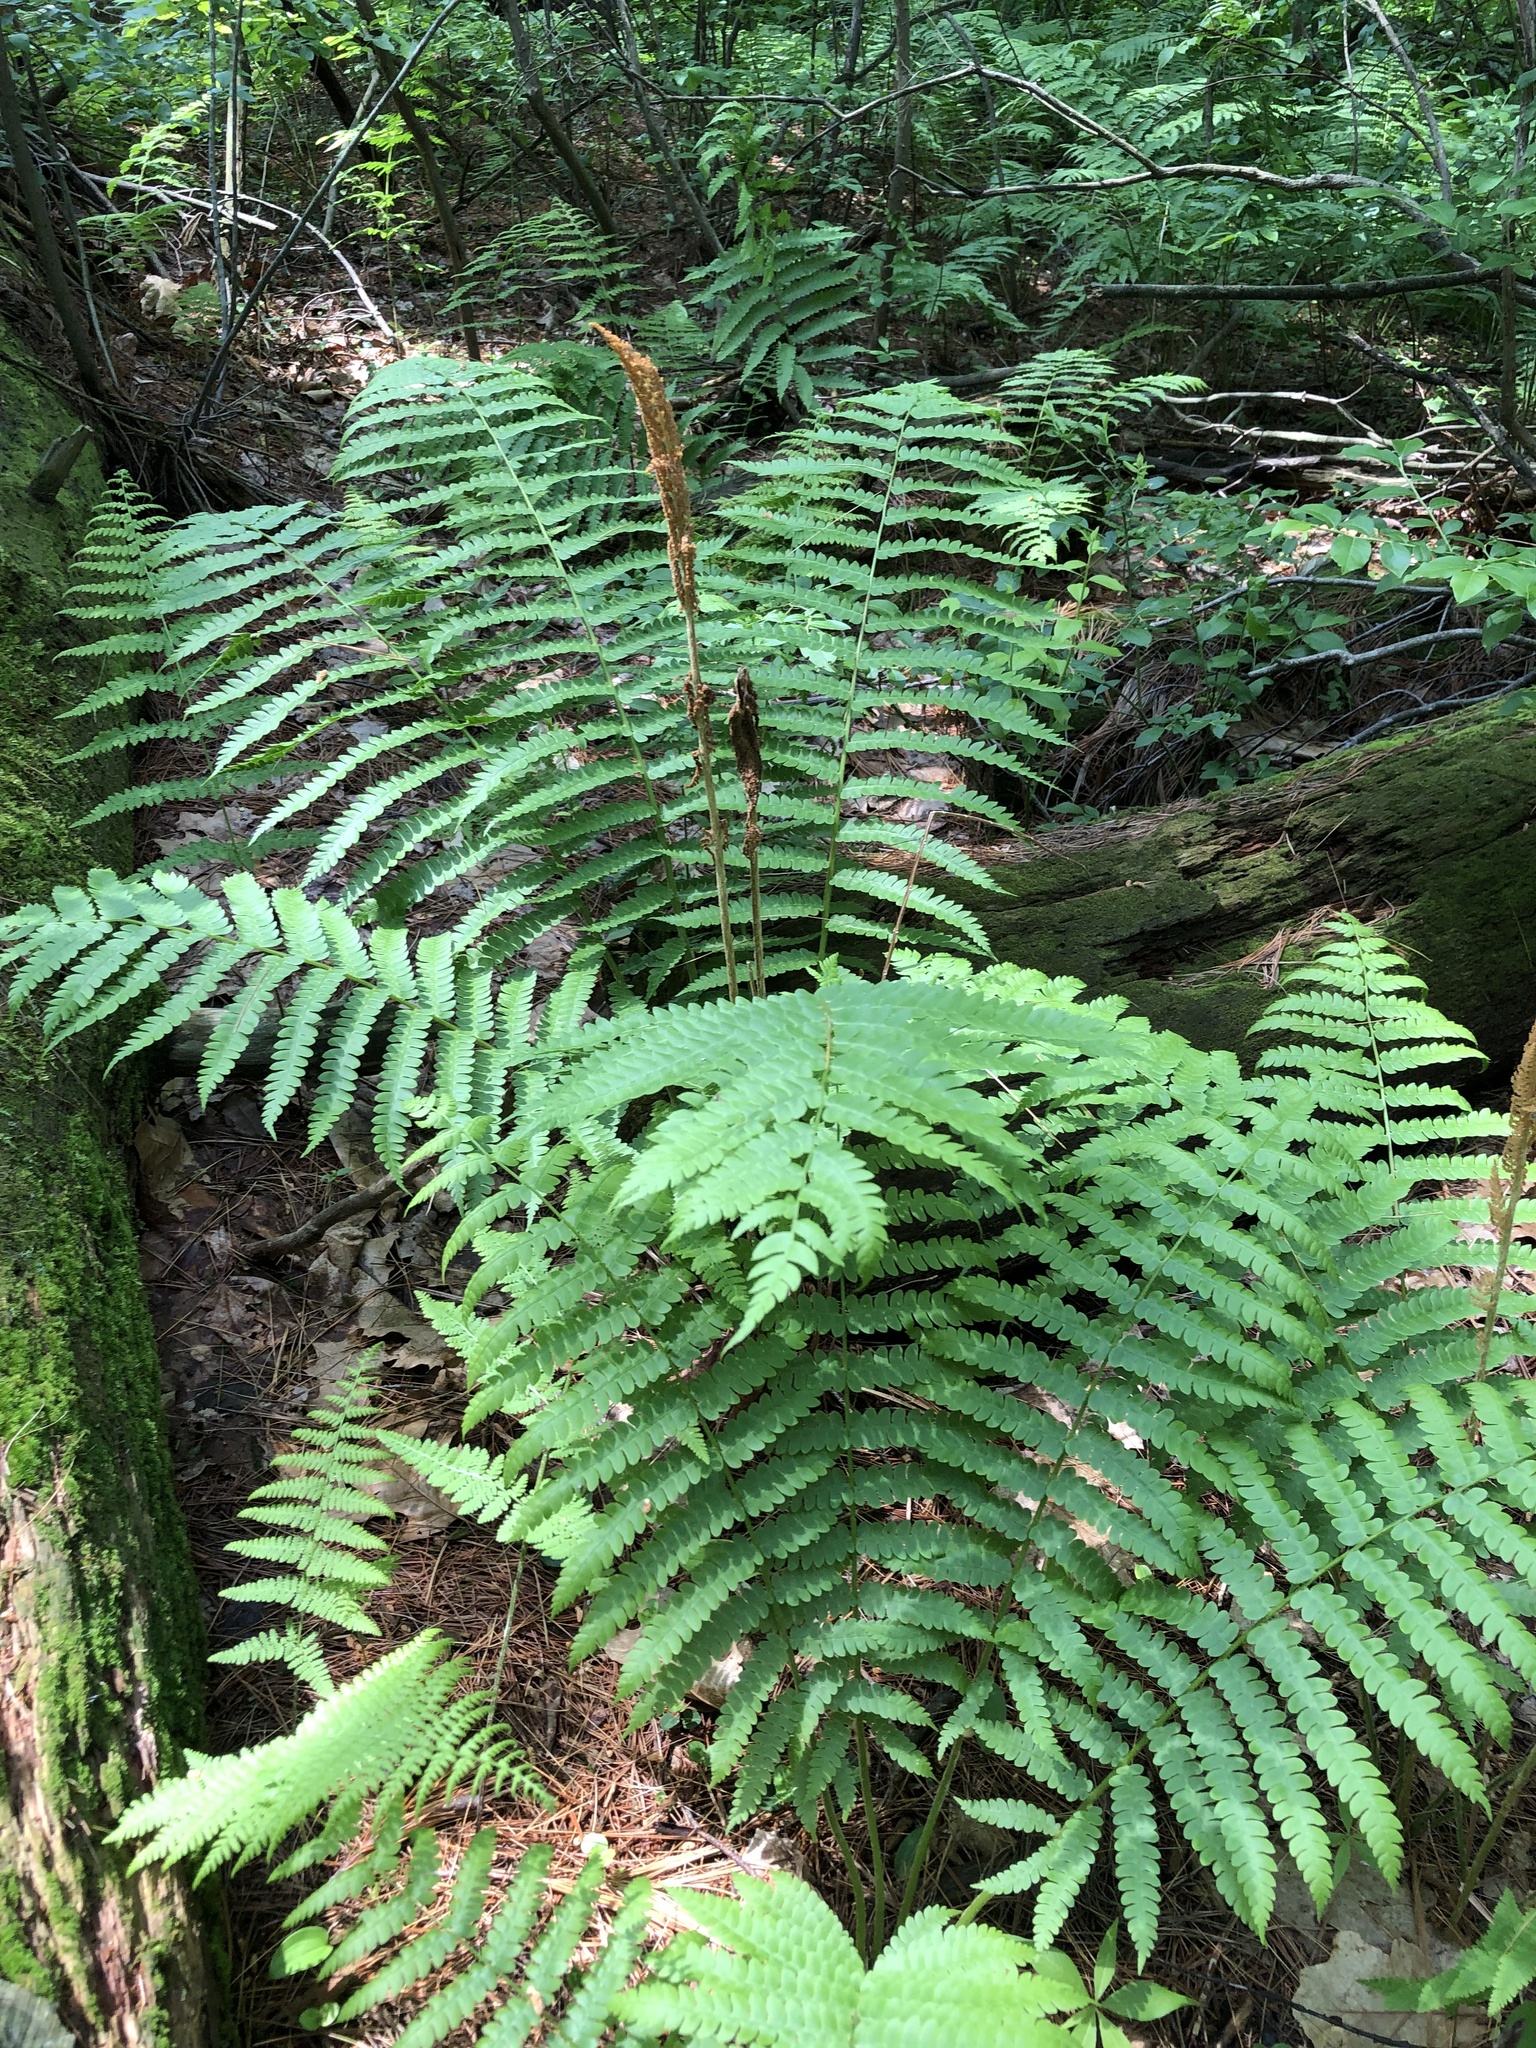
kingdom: Plantae
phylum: Tracheophyta
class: Polypodiopsida
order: Osmundales
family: Osmundaceae
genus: Osmundastrum
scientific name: Osmundastrum cinnamomeum
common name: Cinnamon fern
